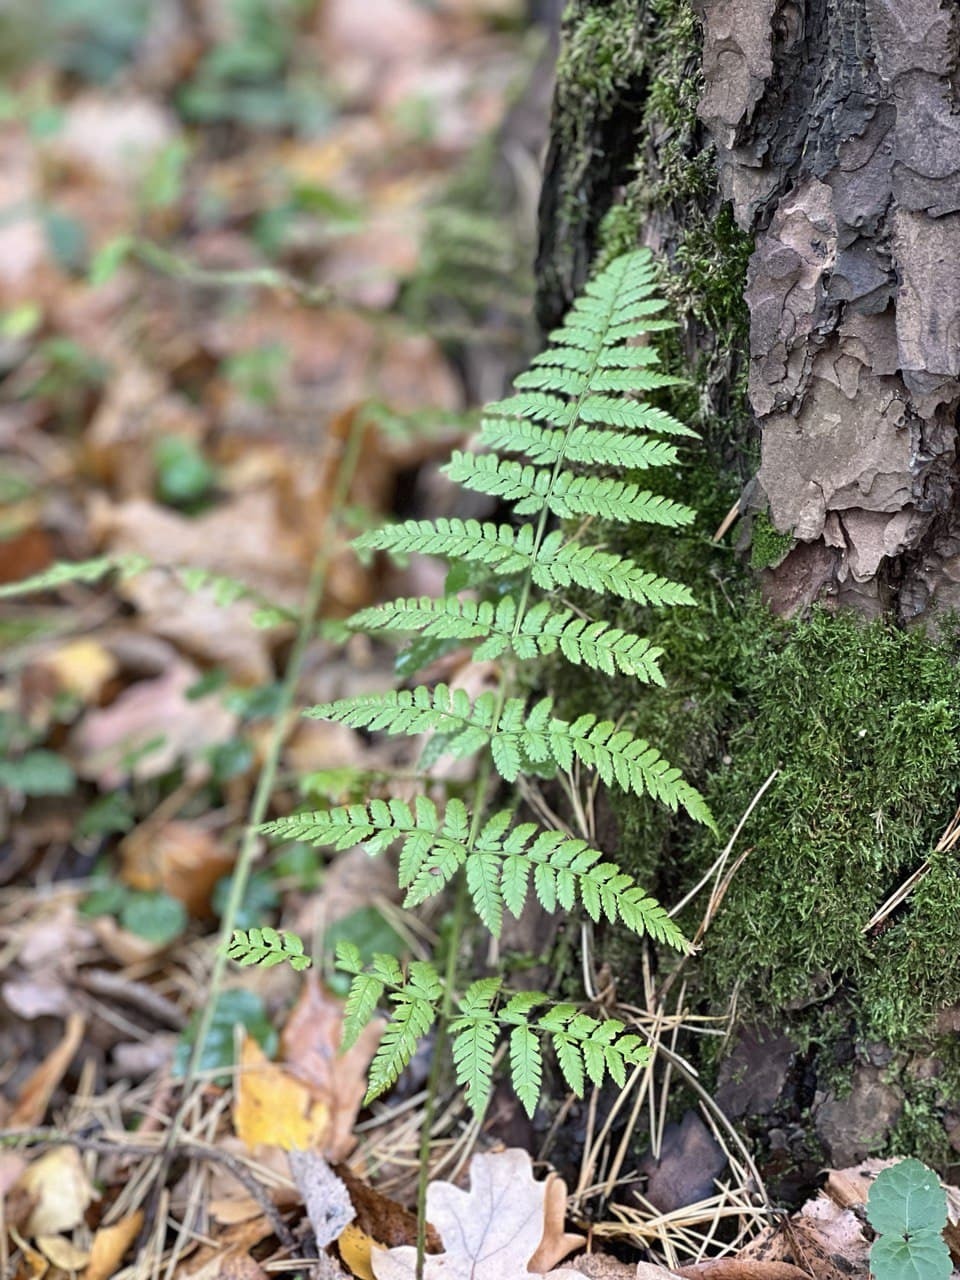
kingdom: Plantae
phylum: Tracheophyta
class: Polypodiopsida
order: Polypodiales
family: Dryopteridaceae
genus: Dryopteris
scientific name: Dryopteris carthusiana
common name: Narrow buckler-fern
